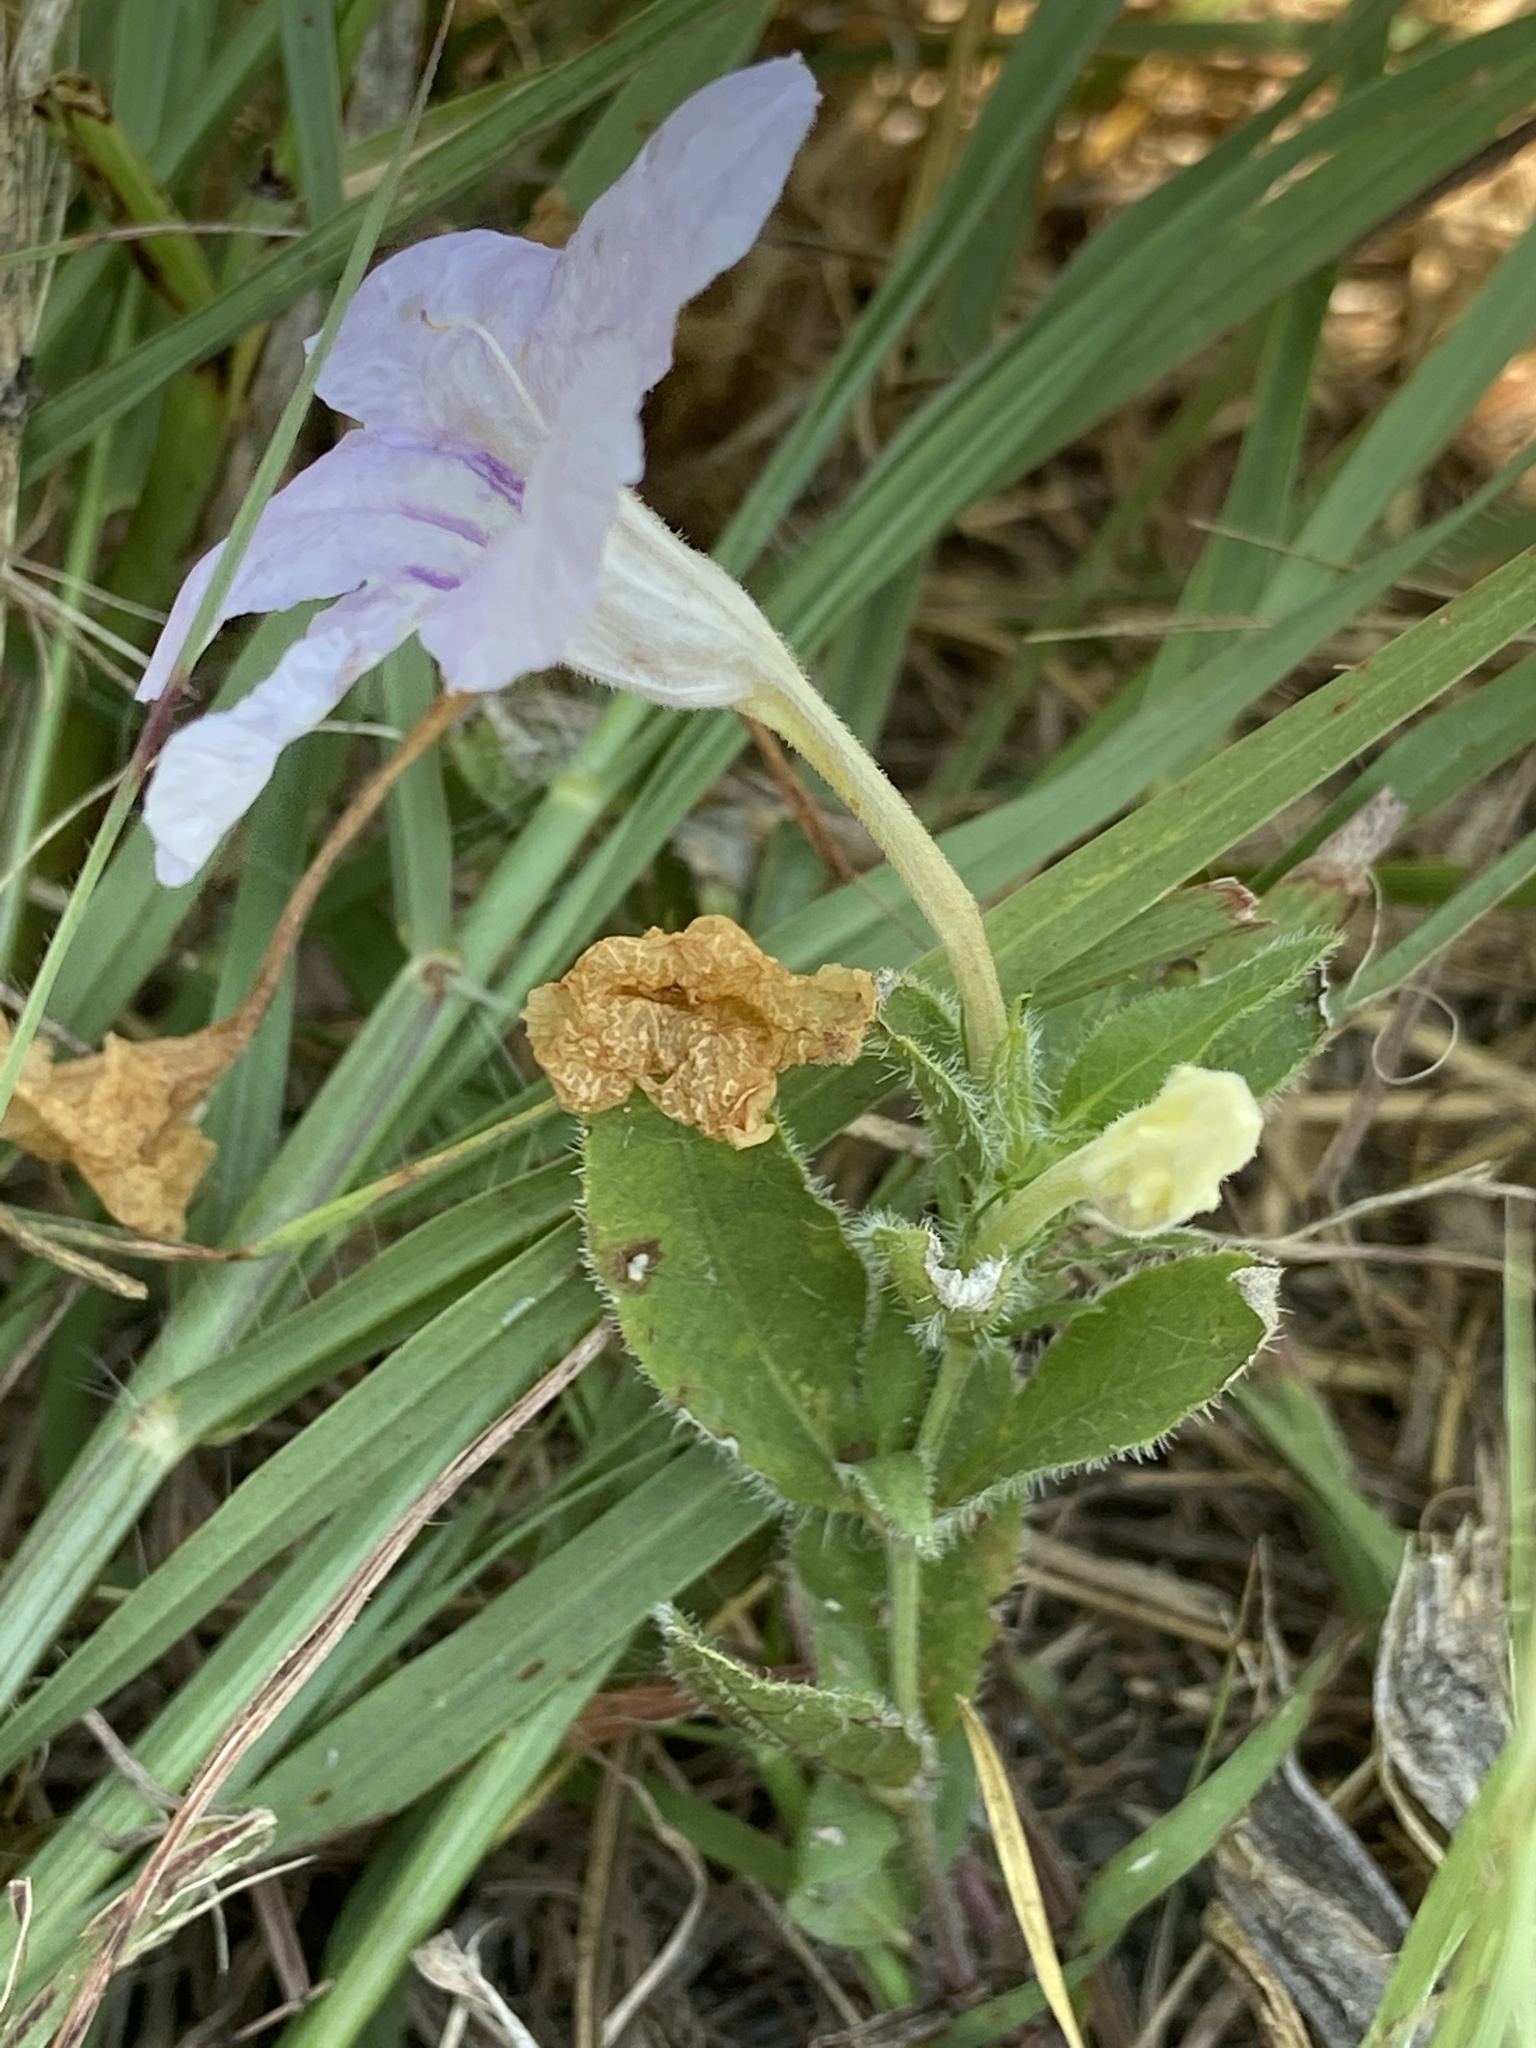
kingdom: Plantae
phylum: Tracheophyta
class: Magnoliopsida
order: Lamiales
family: Acanthaceae
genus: Ruellia
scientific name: Ruellia humilis
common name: Fringe-leaf ruellia
